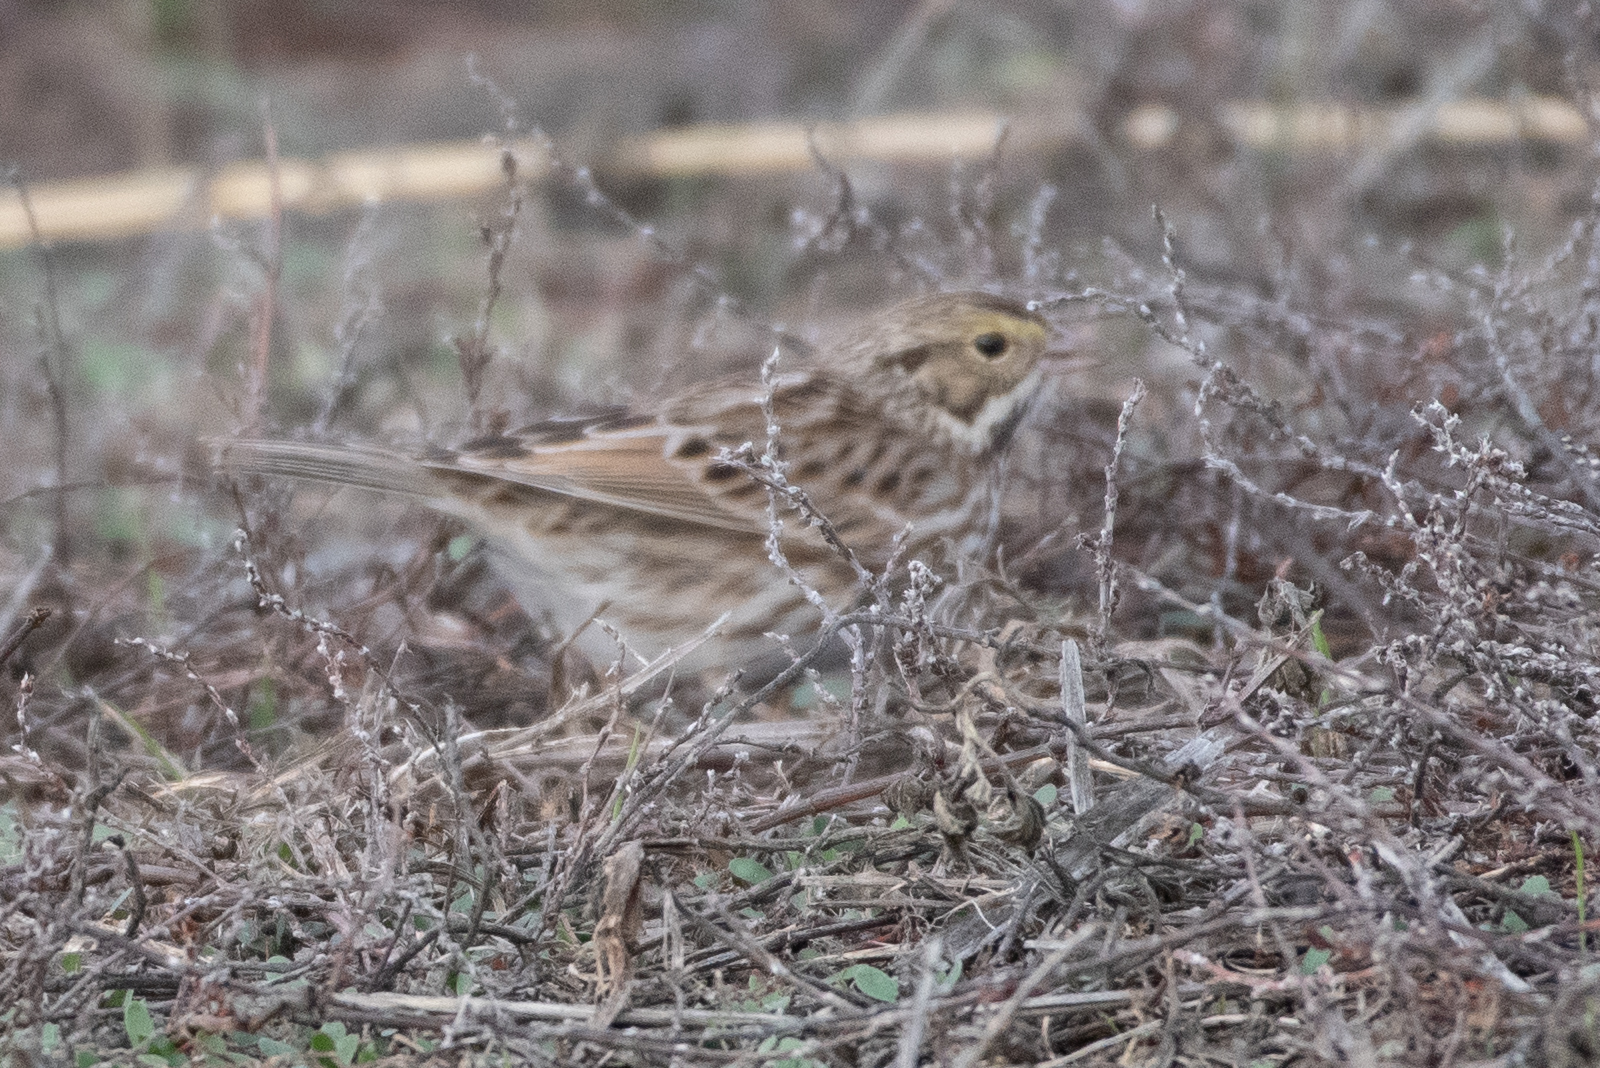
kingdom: Animalia
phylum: Chordata
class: Aves
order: Passeriformes
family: Passerellidae
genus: Passerculus
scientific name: Passerculus sandwichensis
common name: Savannah sparrow
